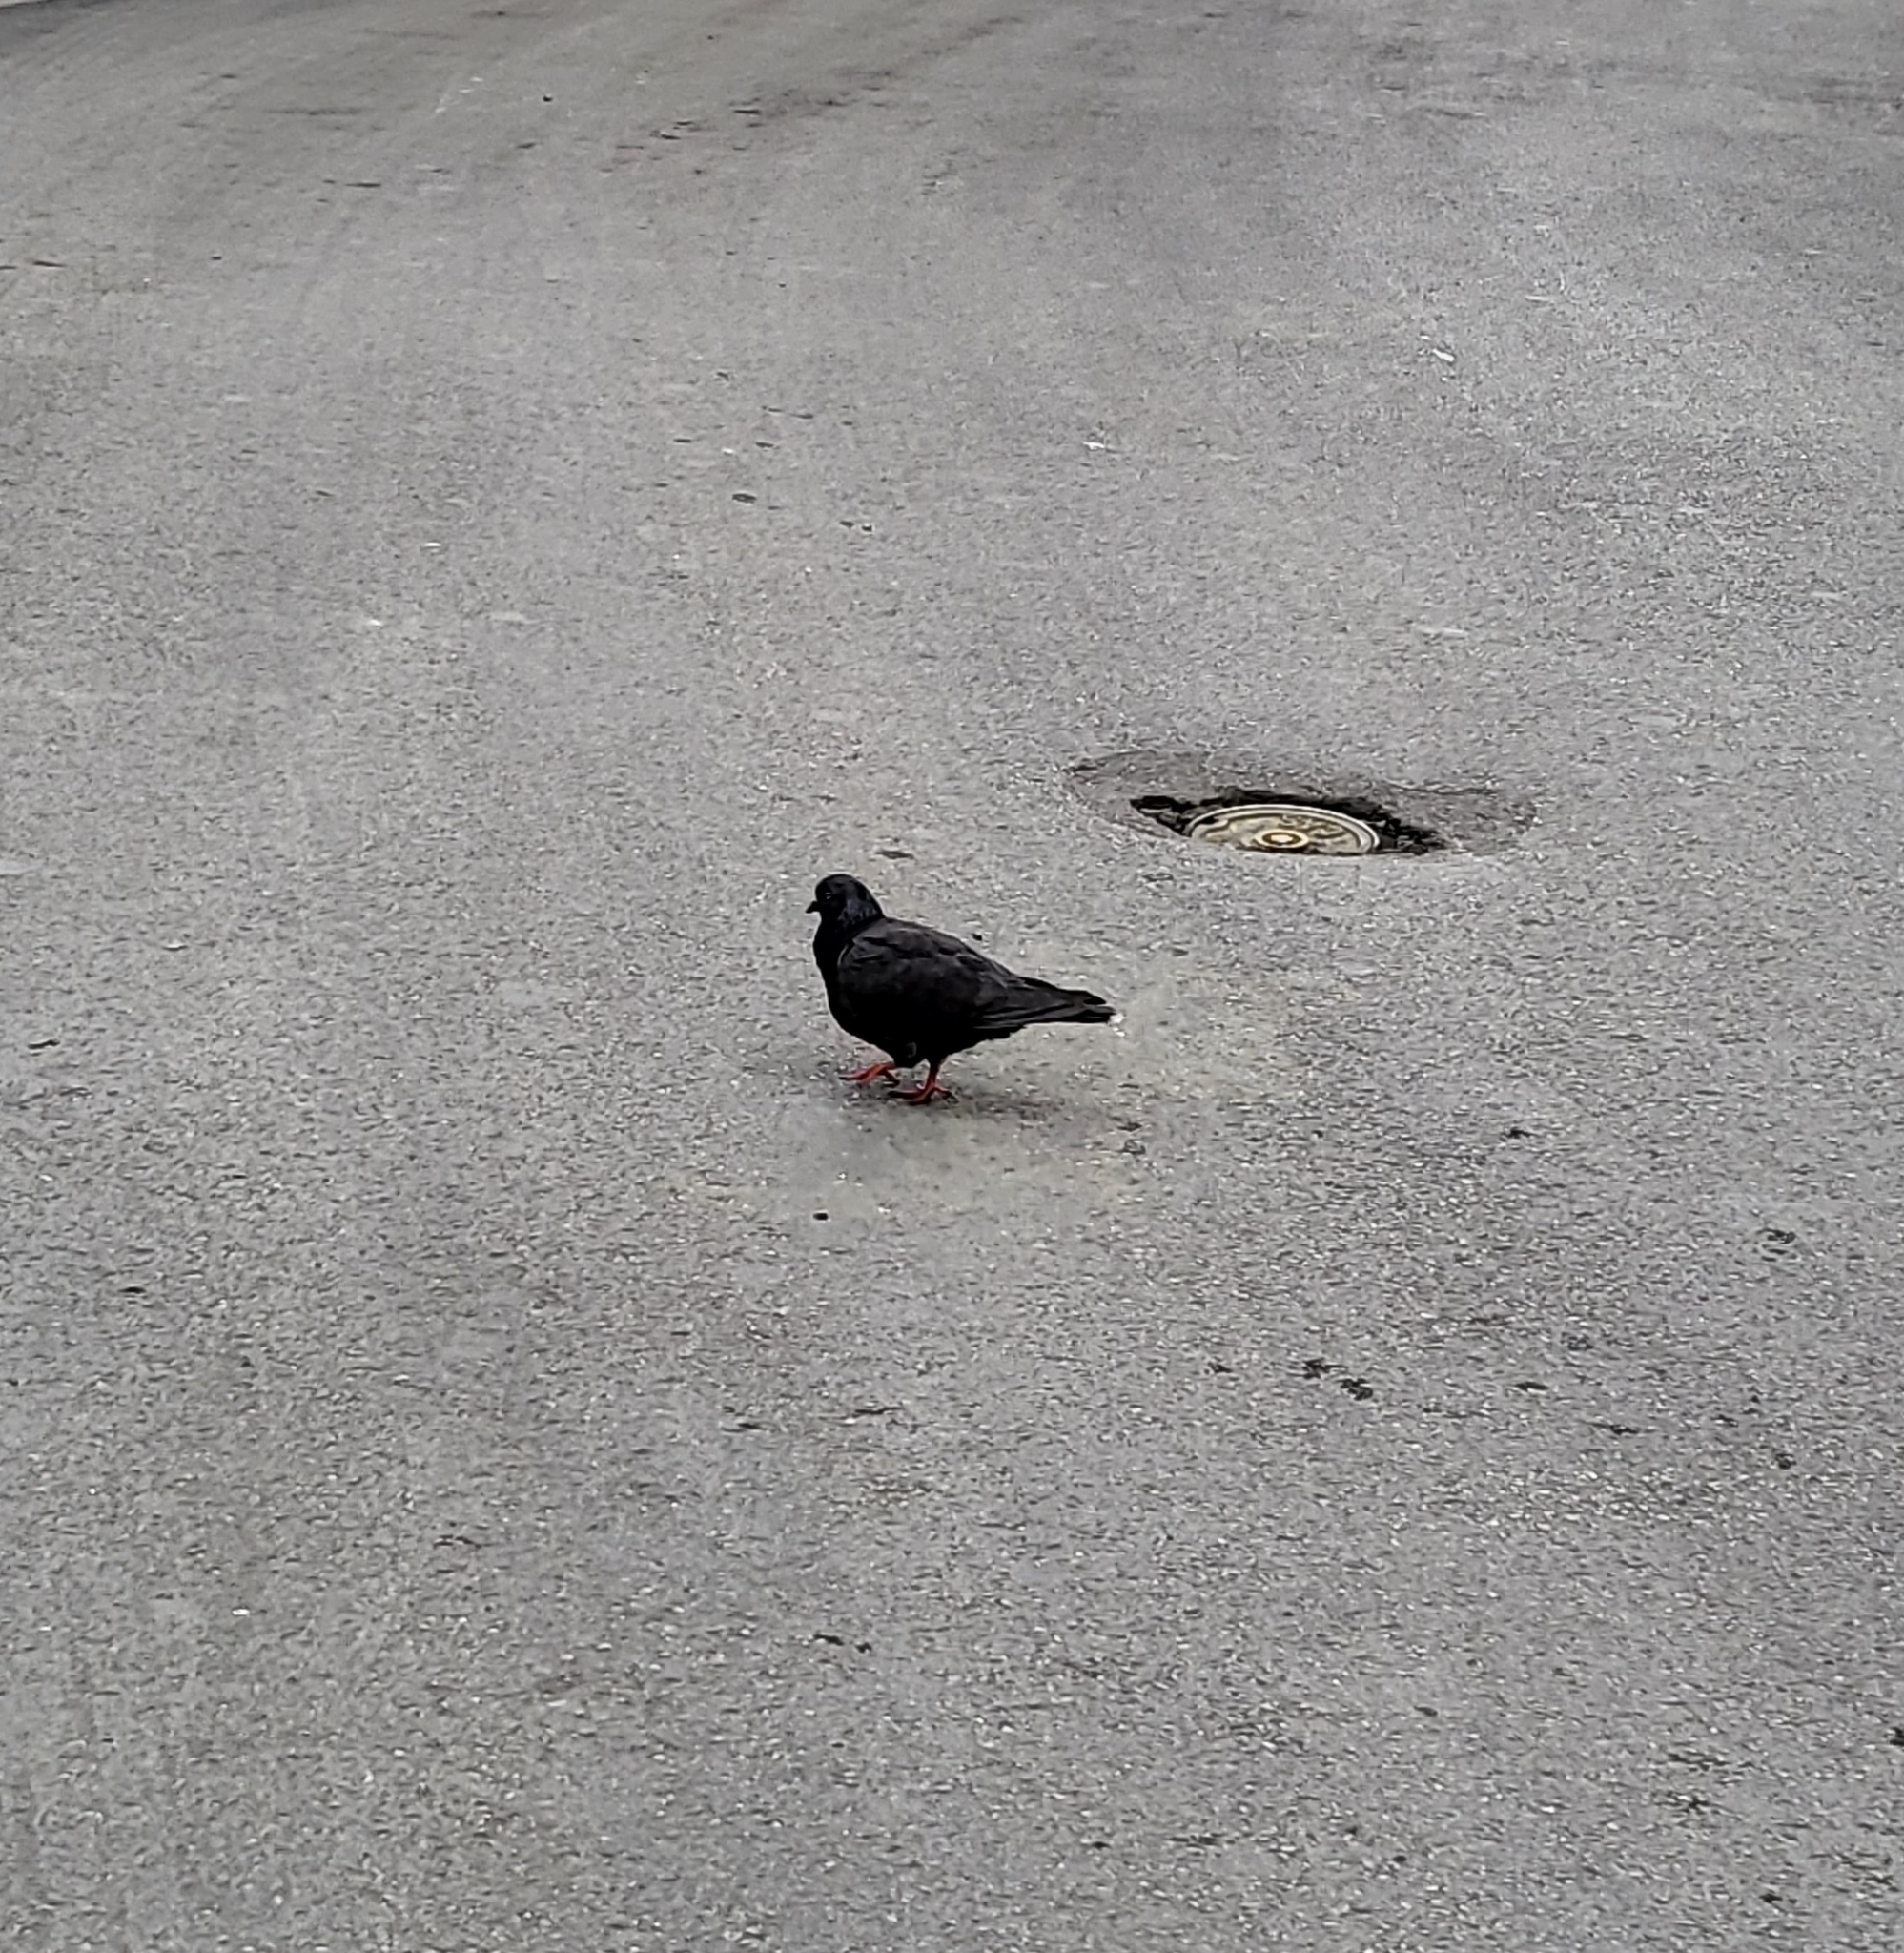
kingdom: Animalia
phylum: Chordata
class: Aves
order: Columbiformes
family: Columbidae
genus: Columba
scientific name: Columba livia
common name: Rock pigeon
